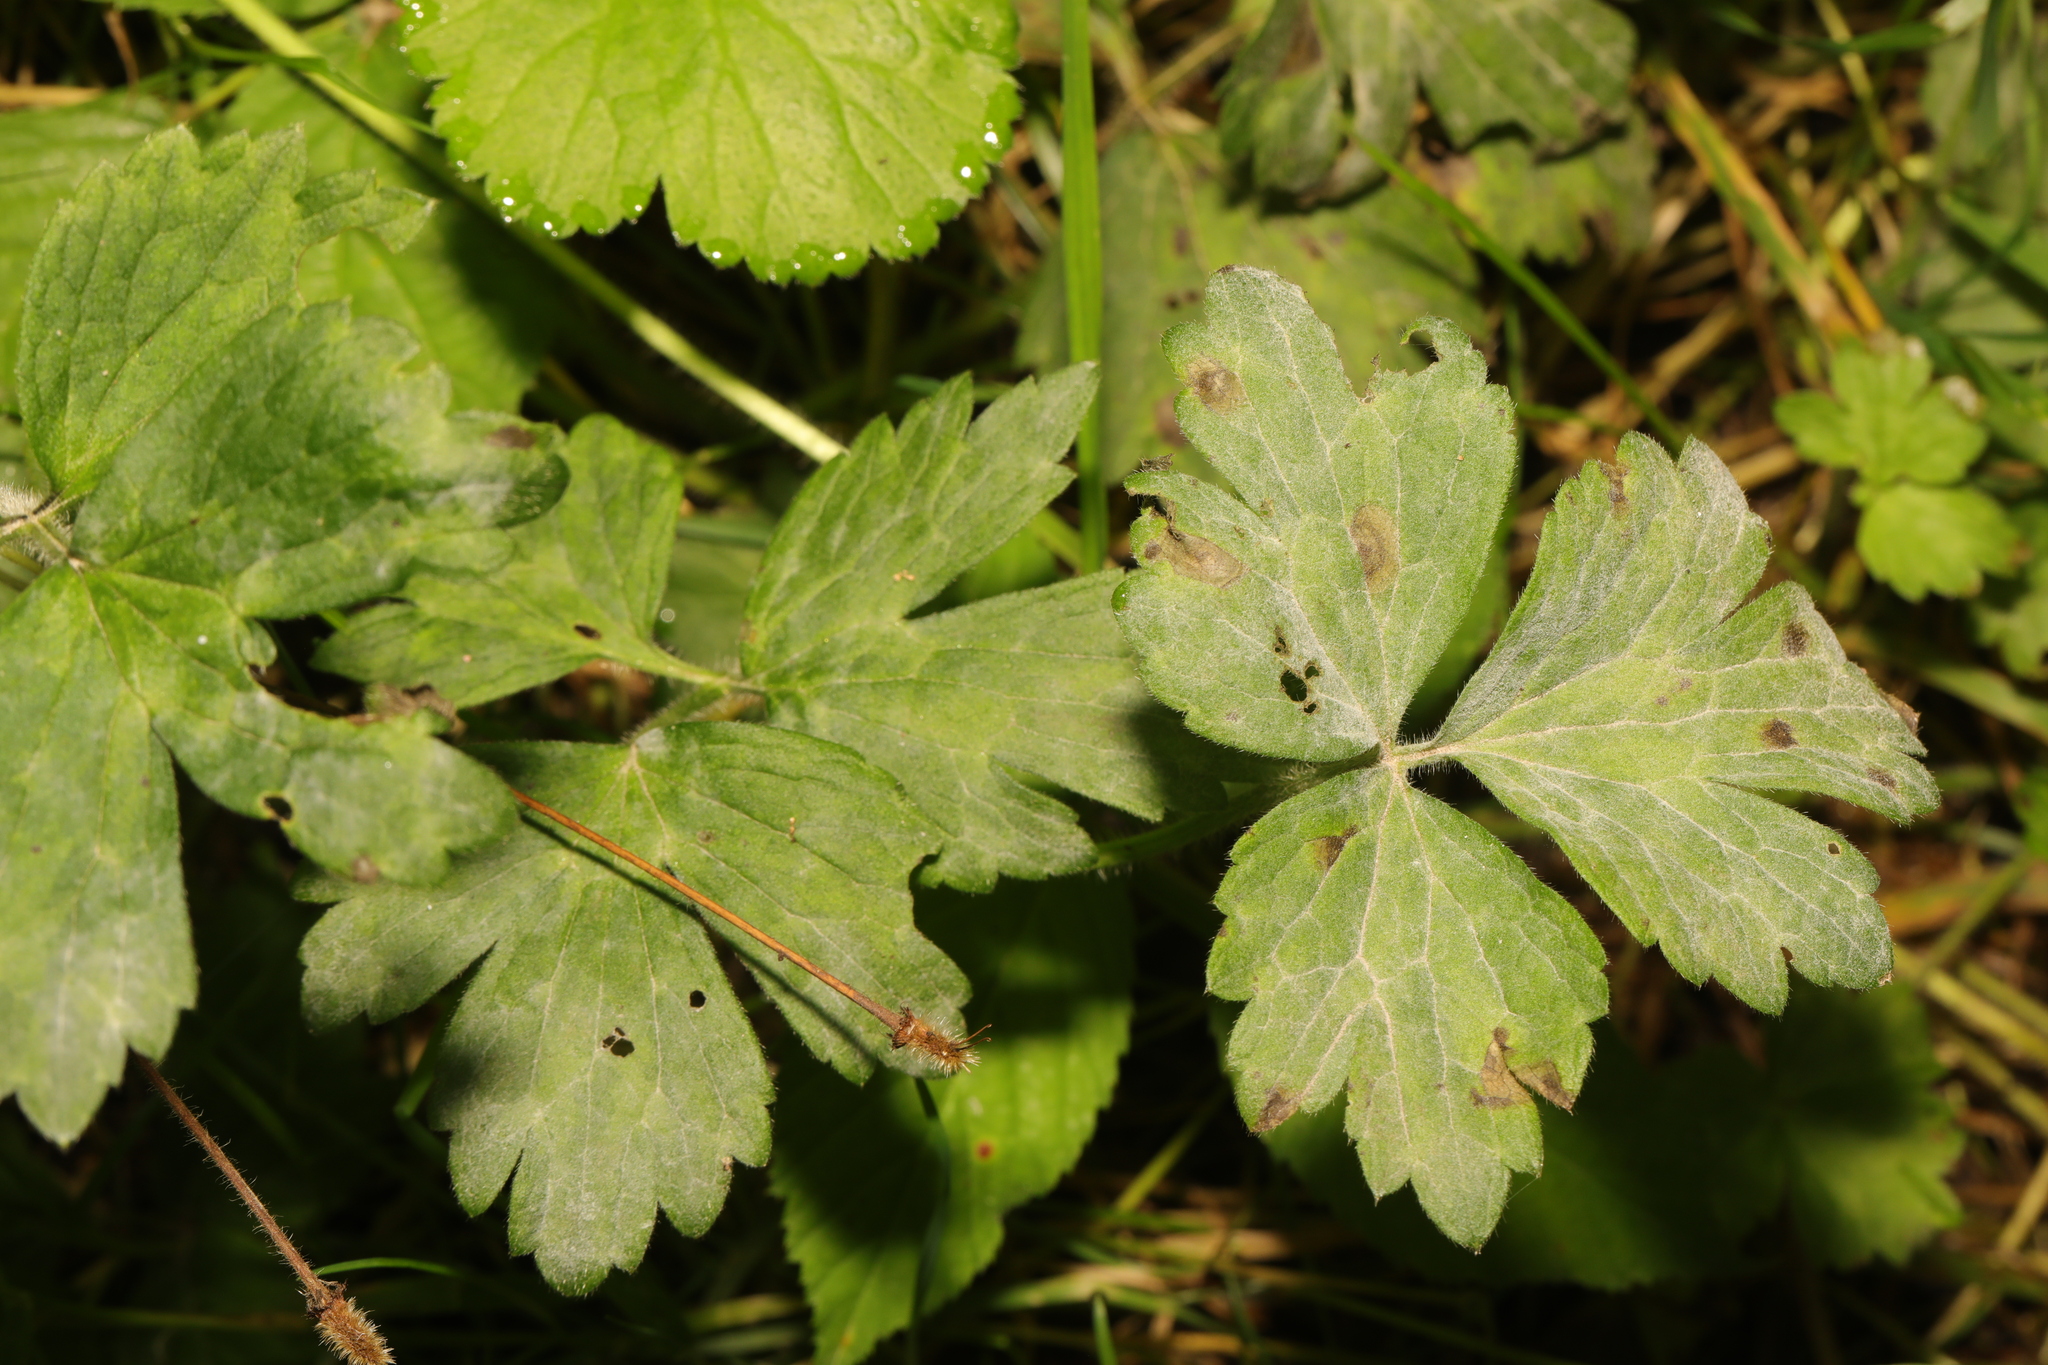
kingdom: Plantae
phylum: Tracheophyta
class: Magnoliopsida
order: Ranunculales
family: Ranunculaceae
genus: Ranunculus
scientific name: Ranunculus repens
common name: Creeping buttercup
